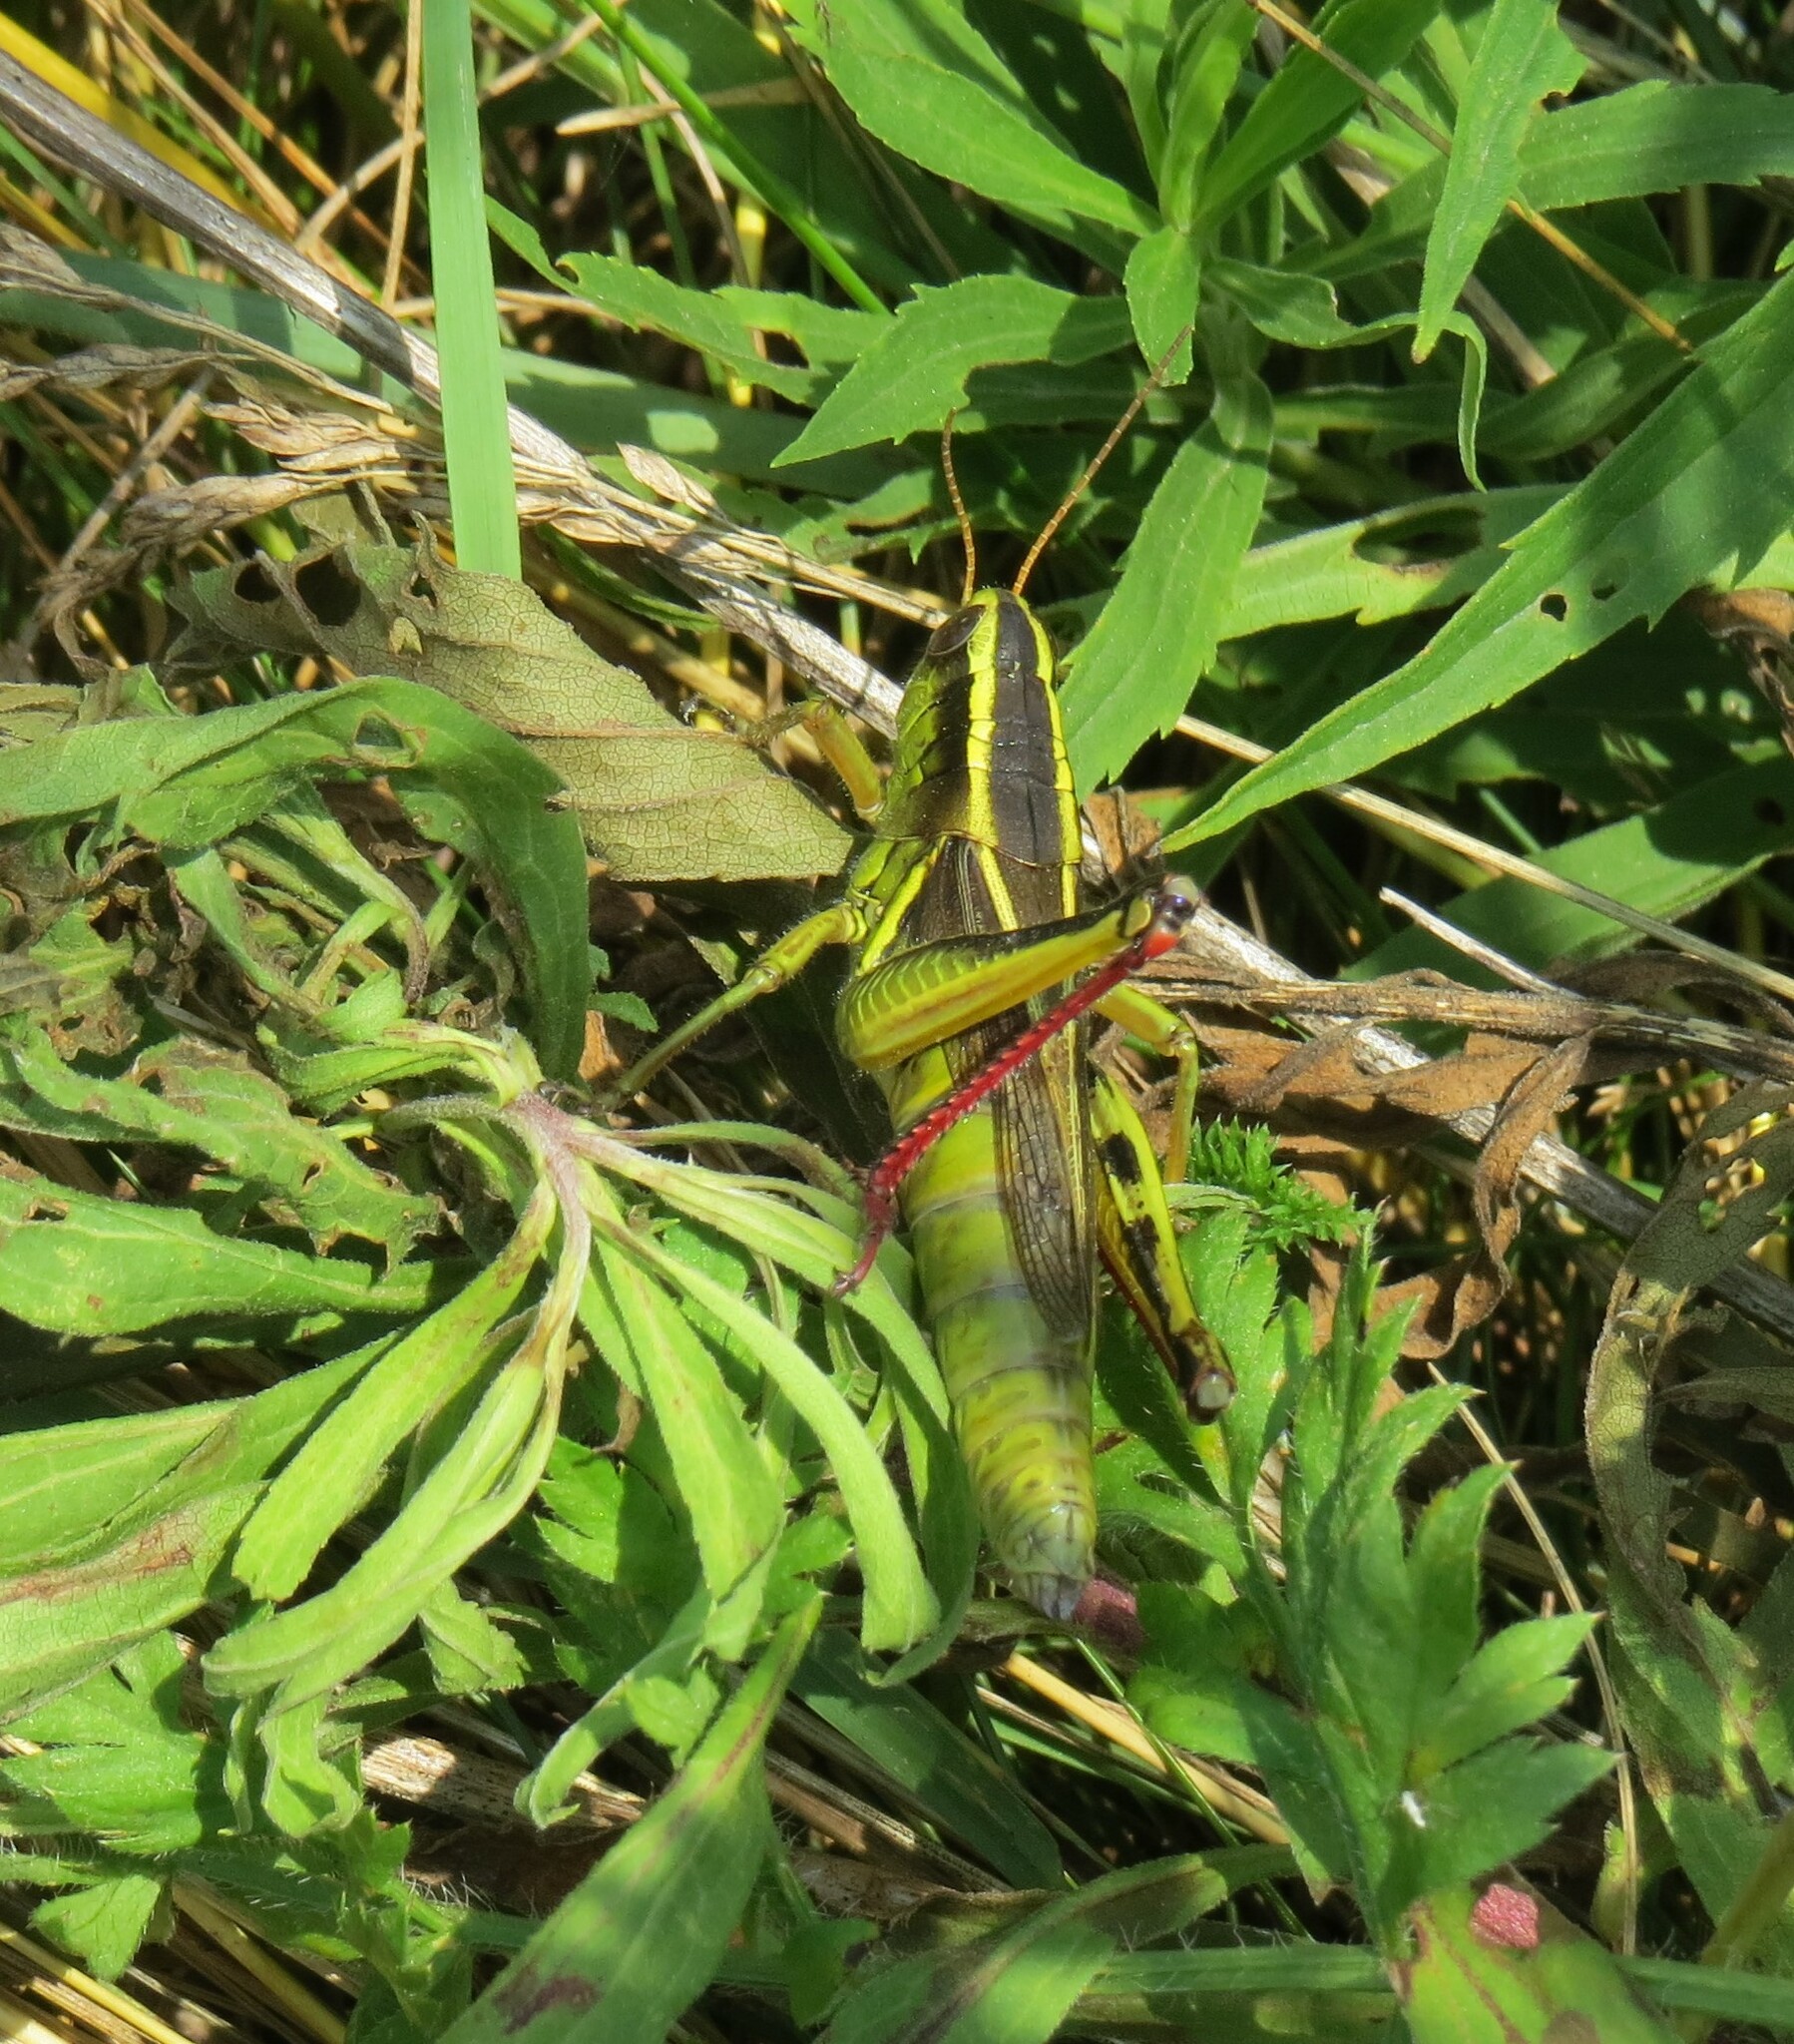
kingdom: Animalia
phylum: Arthropoda
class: Insecta
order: Orthoptera
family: Acrididae
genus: Melanoplus
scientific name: Melanoplus bivittatus
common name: Two-striped grasshopper
